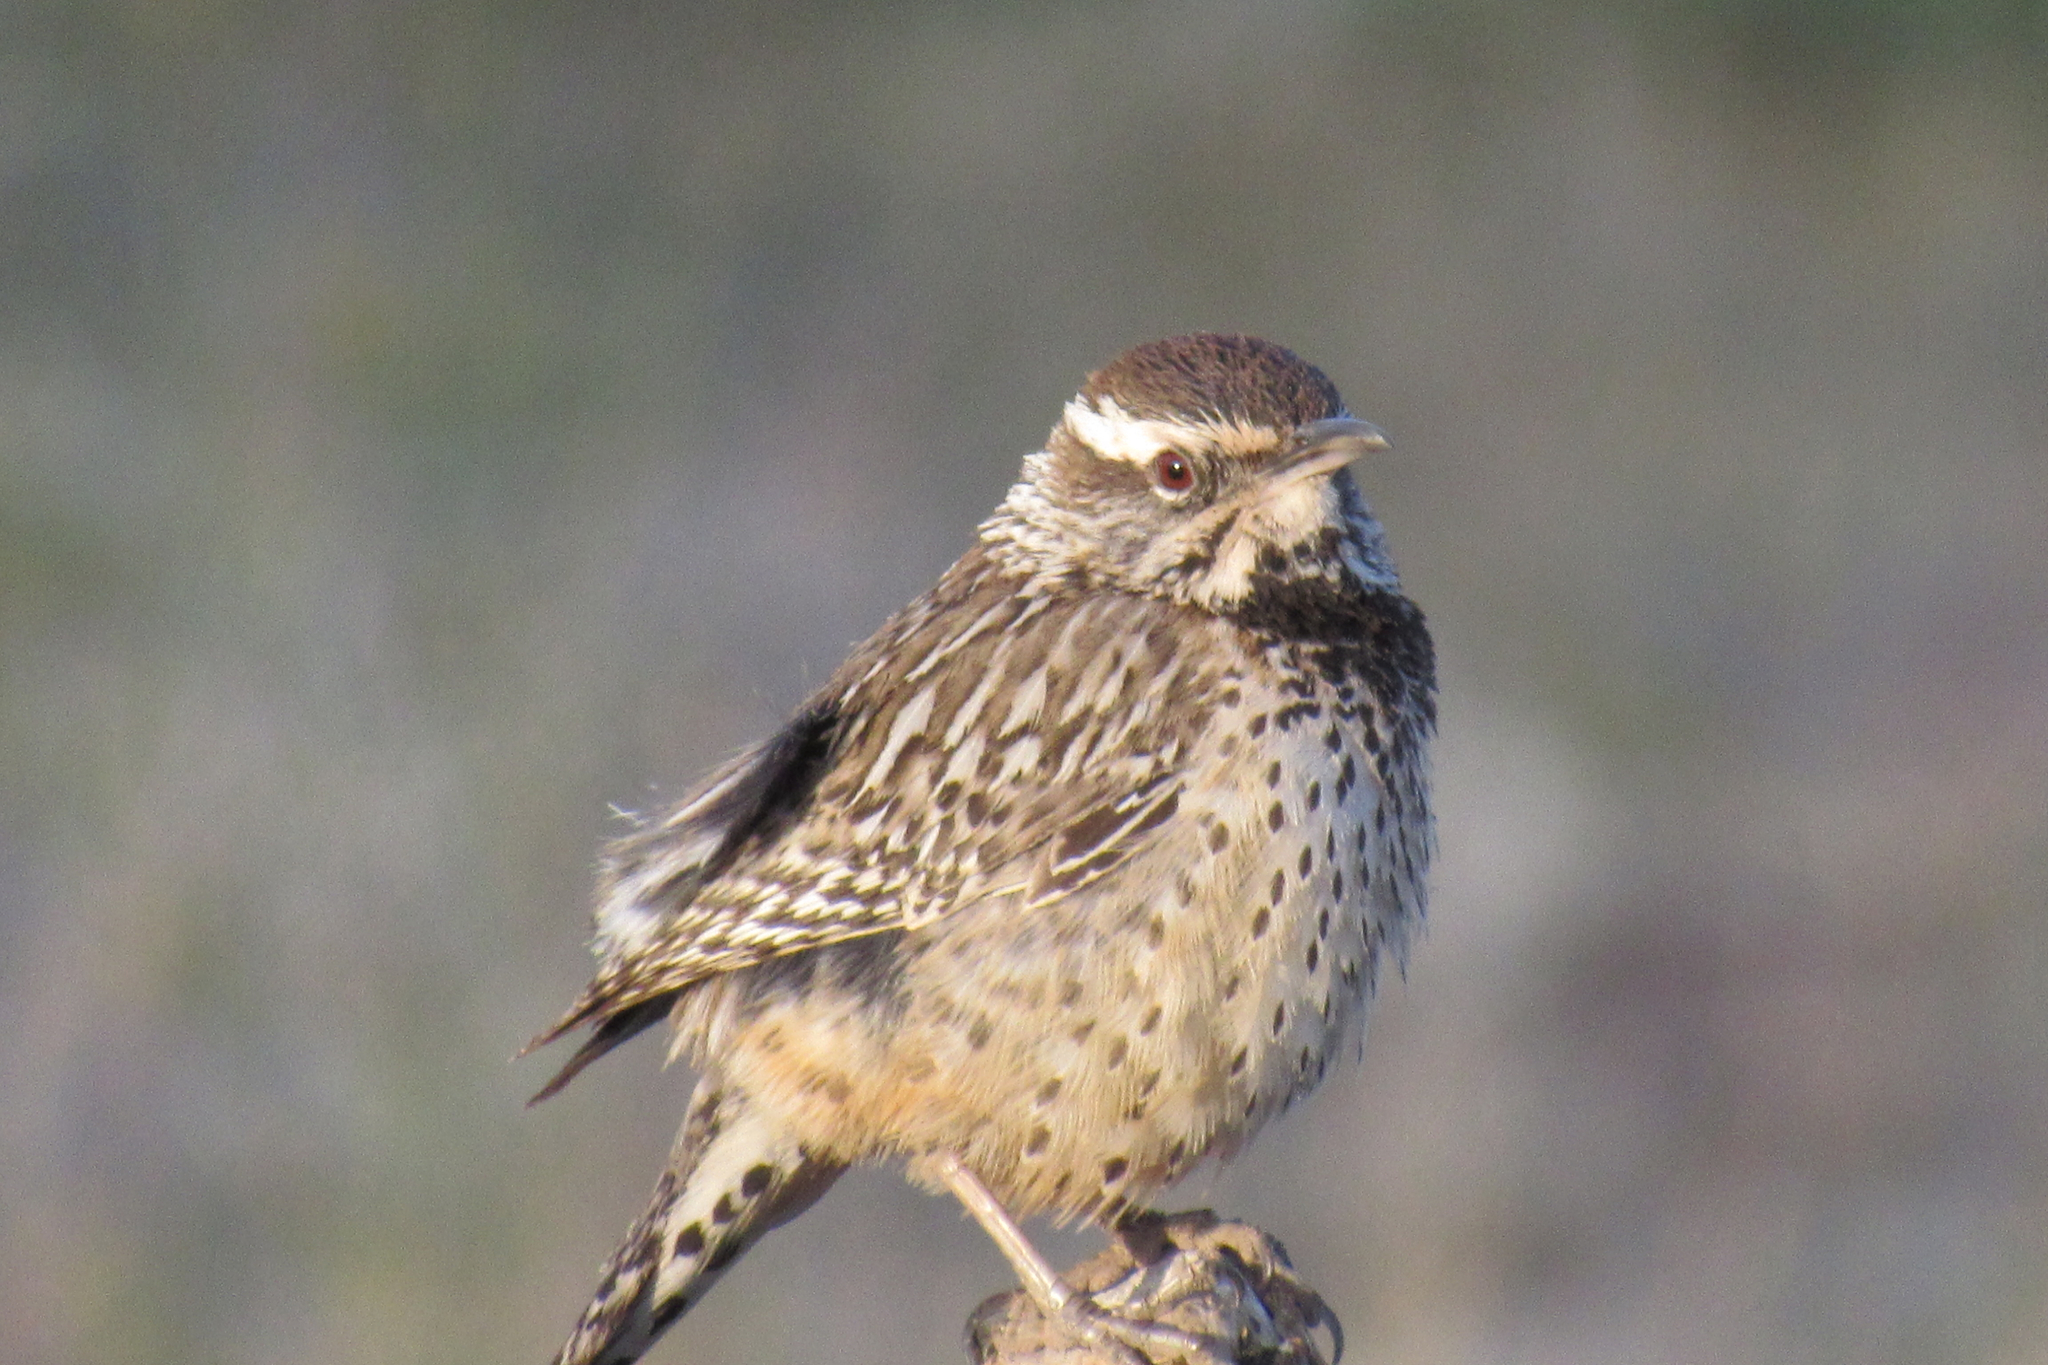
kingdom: Animalia
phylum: Chordata
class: Aves
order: Passeriformes
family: Troglodytidae
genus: Campylorhynchus
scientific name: Campylorhynchus brunneicapillus
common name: Cactus wren
